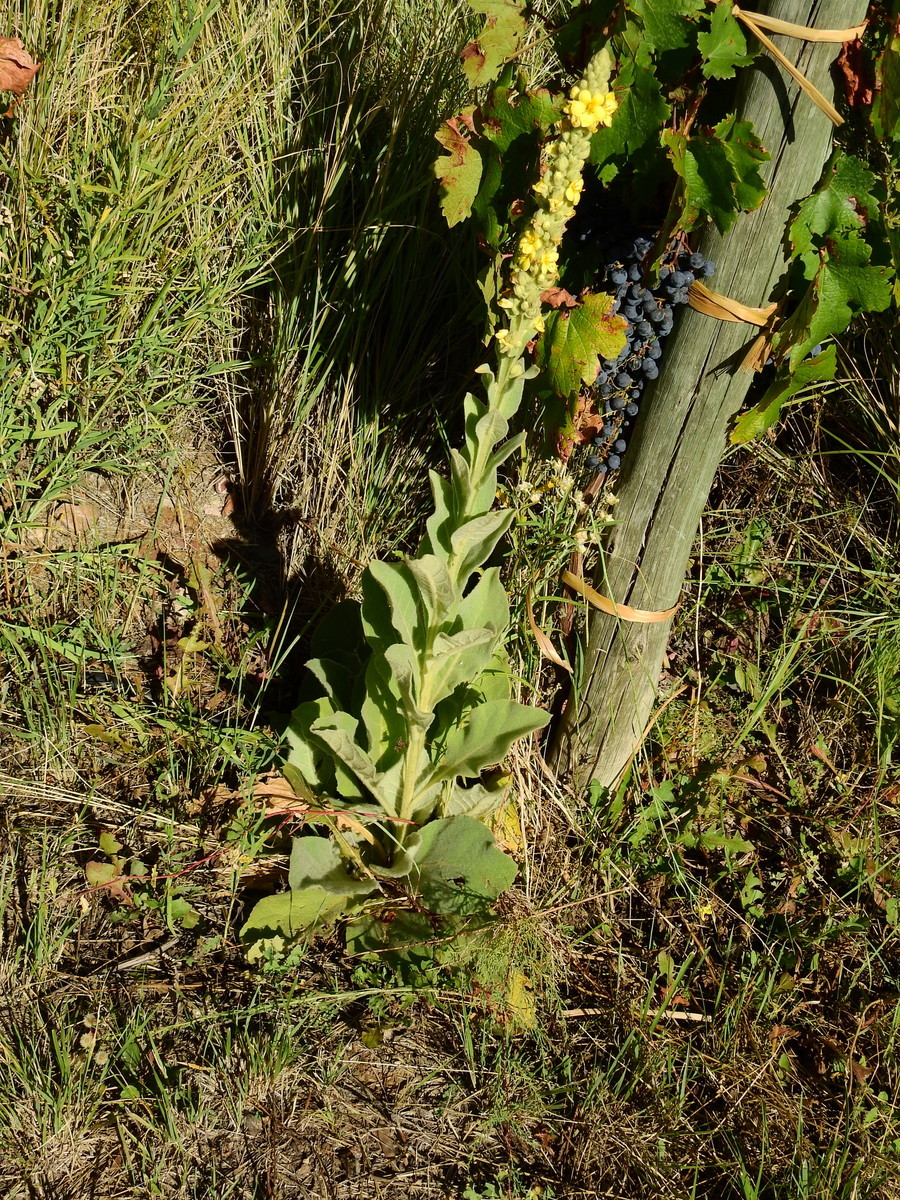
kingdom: Plantae
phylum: Tracheophyta
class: Magnoliopsida
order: Lamiales
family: Scrophulariaceae
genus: Verbascum
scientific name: Verbascum thapsus
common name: Common mullein
